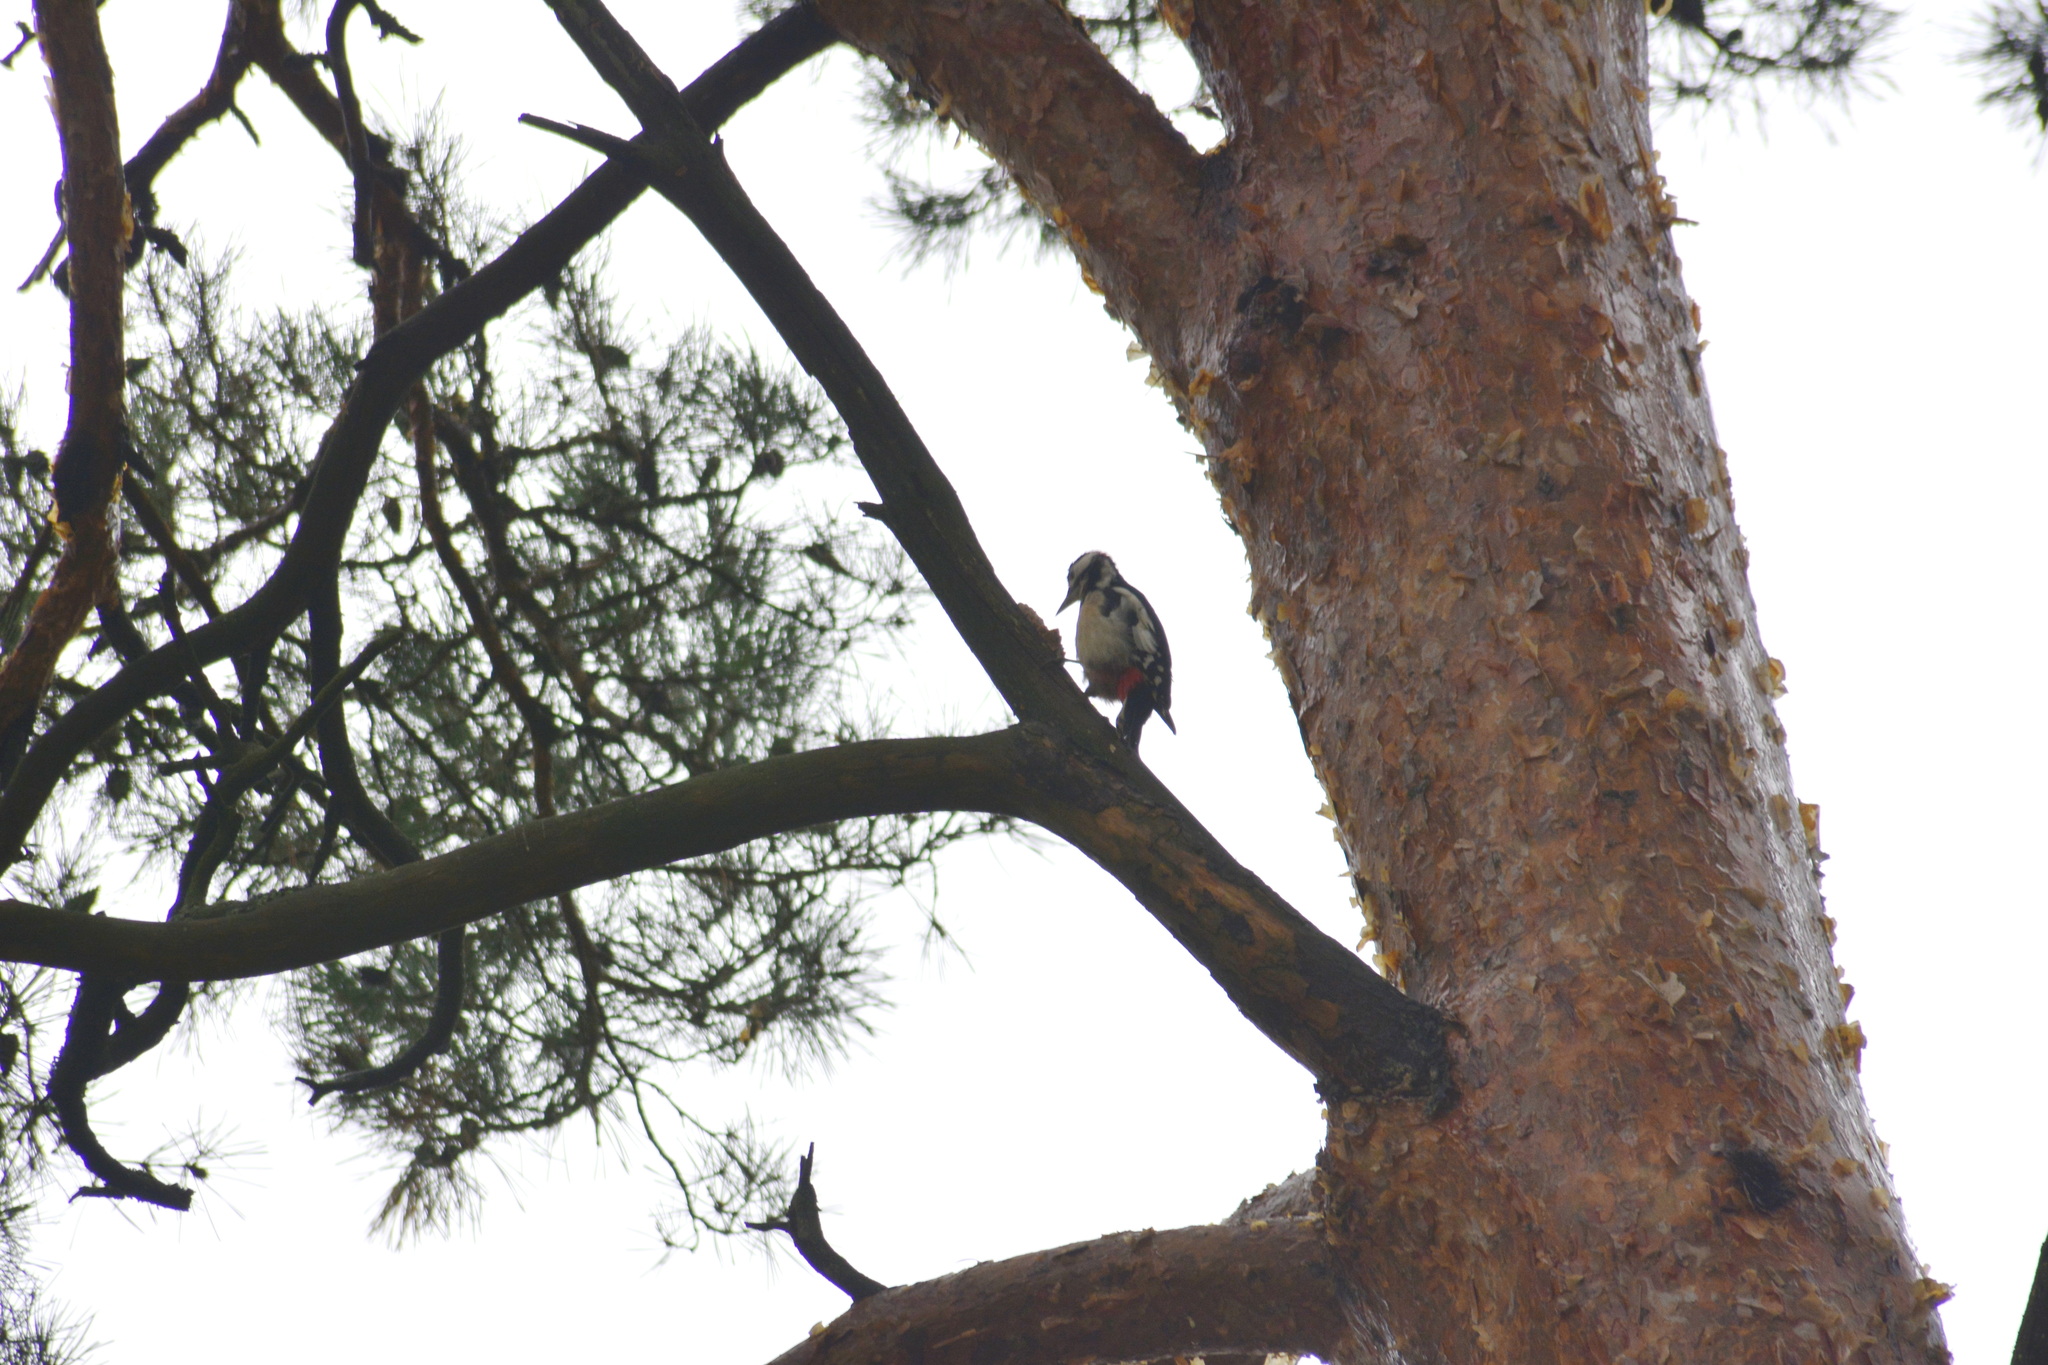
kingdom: Animalia
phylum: Chordata
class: Aves
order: Piciformes
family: Picidae
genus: Dendrocopos
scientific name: Dendrocopos major
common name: Great spotted woodpecker
